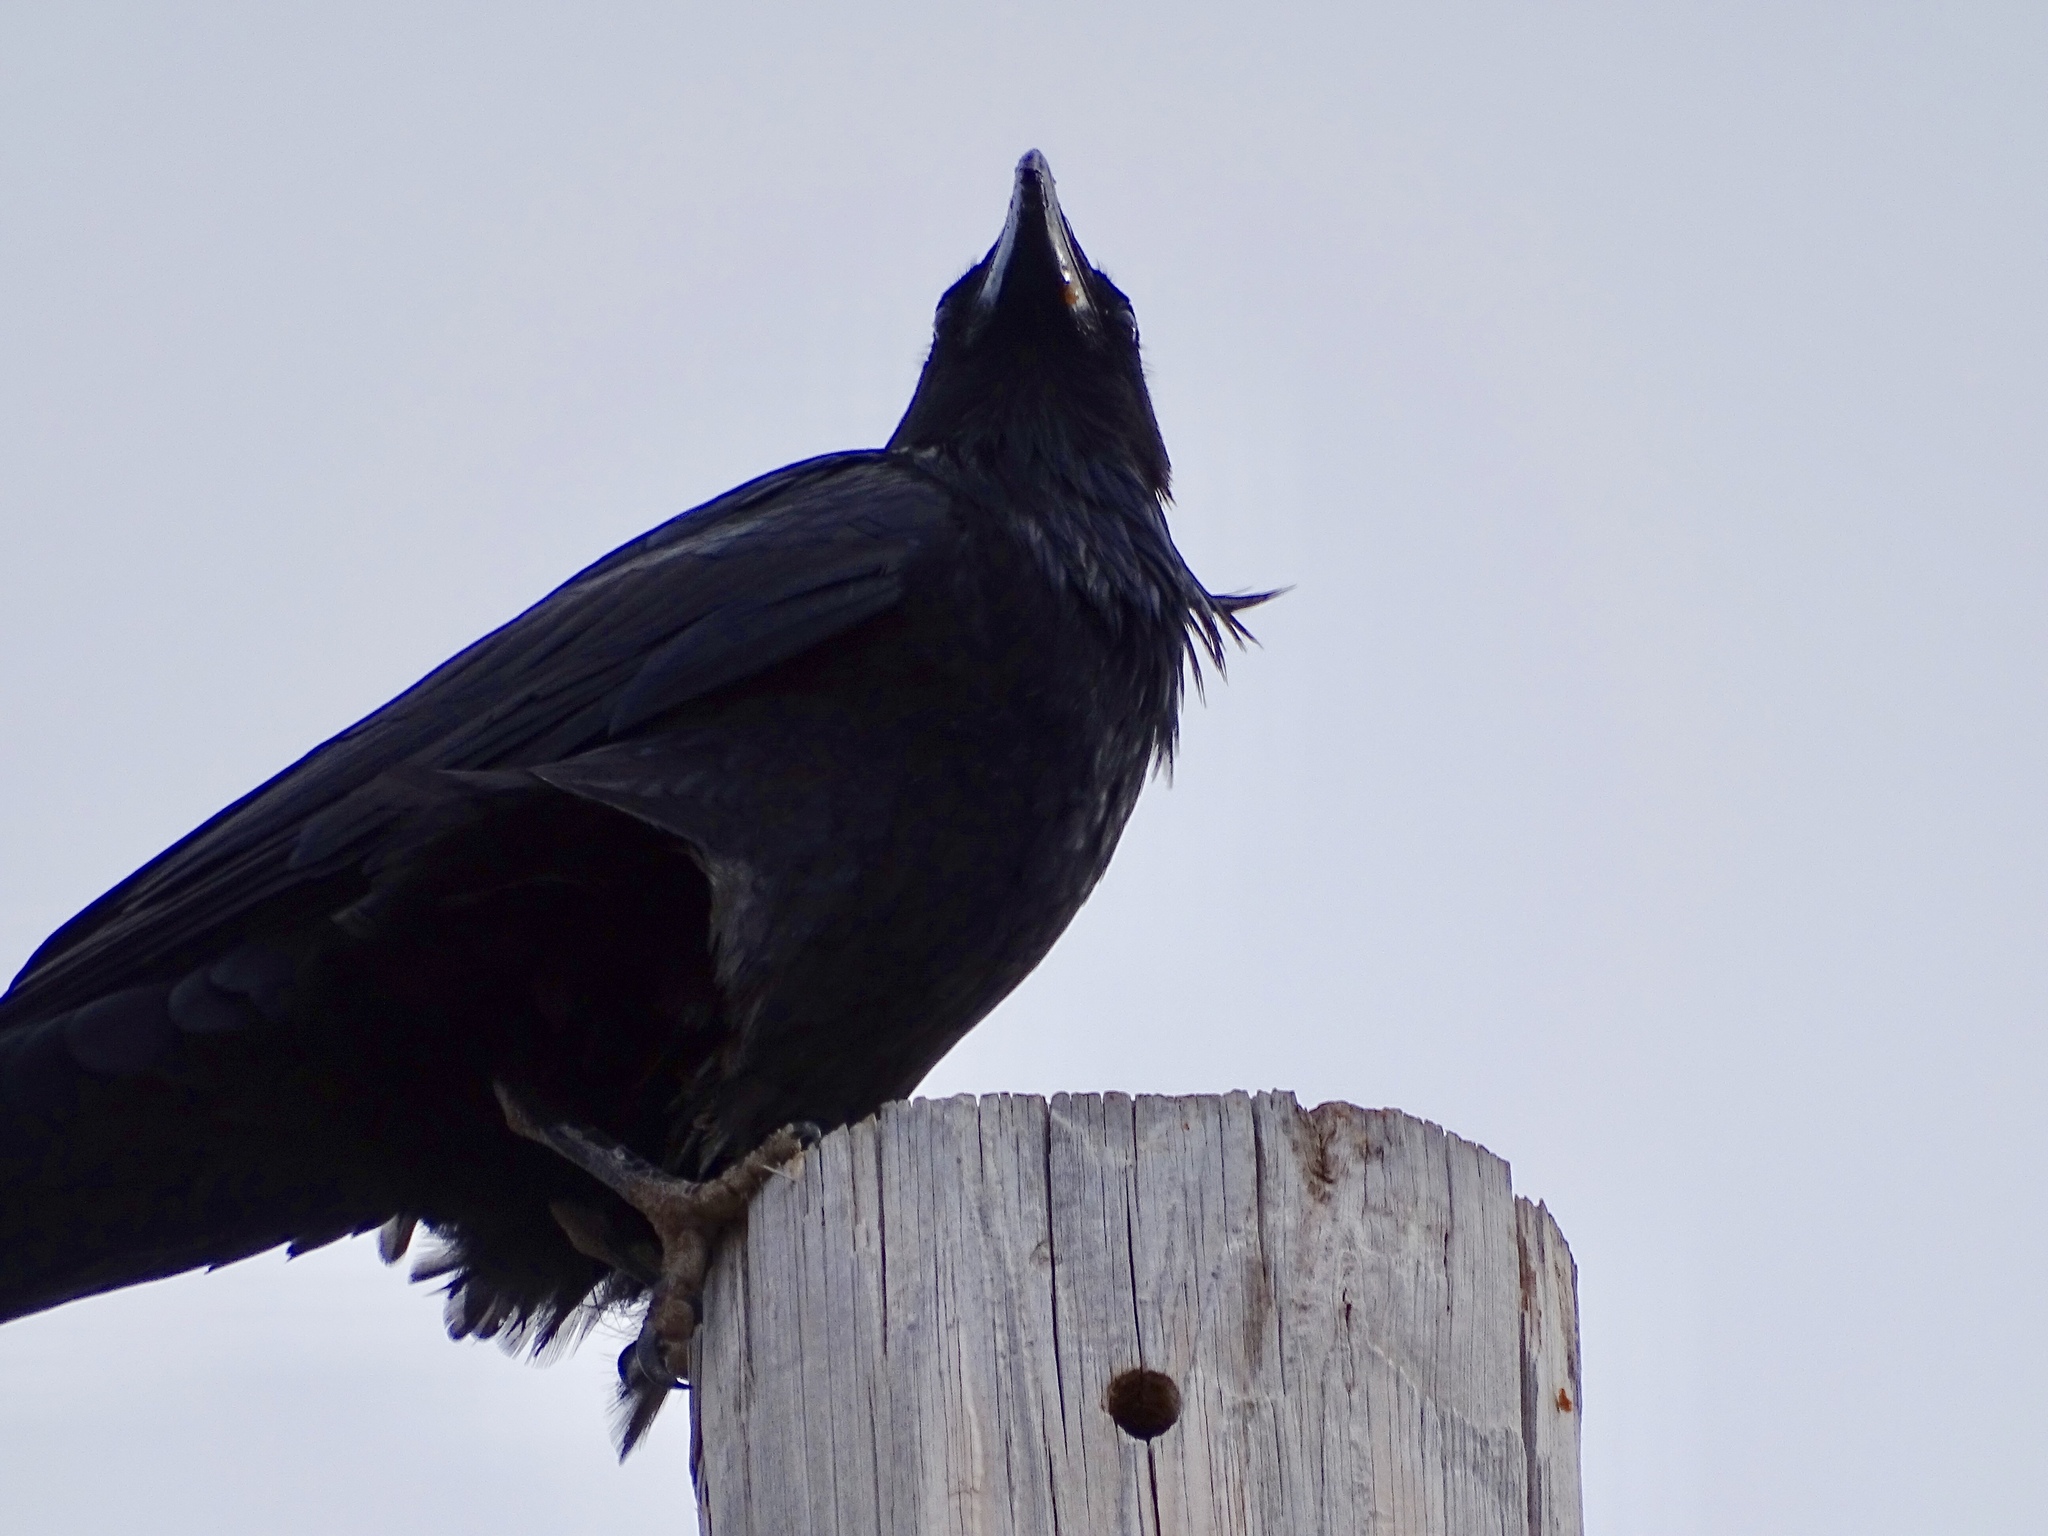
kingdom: Animalia
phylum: Chordata
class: Aves
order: Passeriformes
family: Corvidae
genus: Corvus
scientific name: Corvus corax
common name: Common raven
